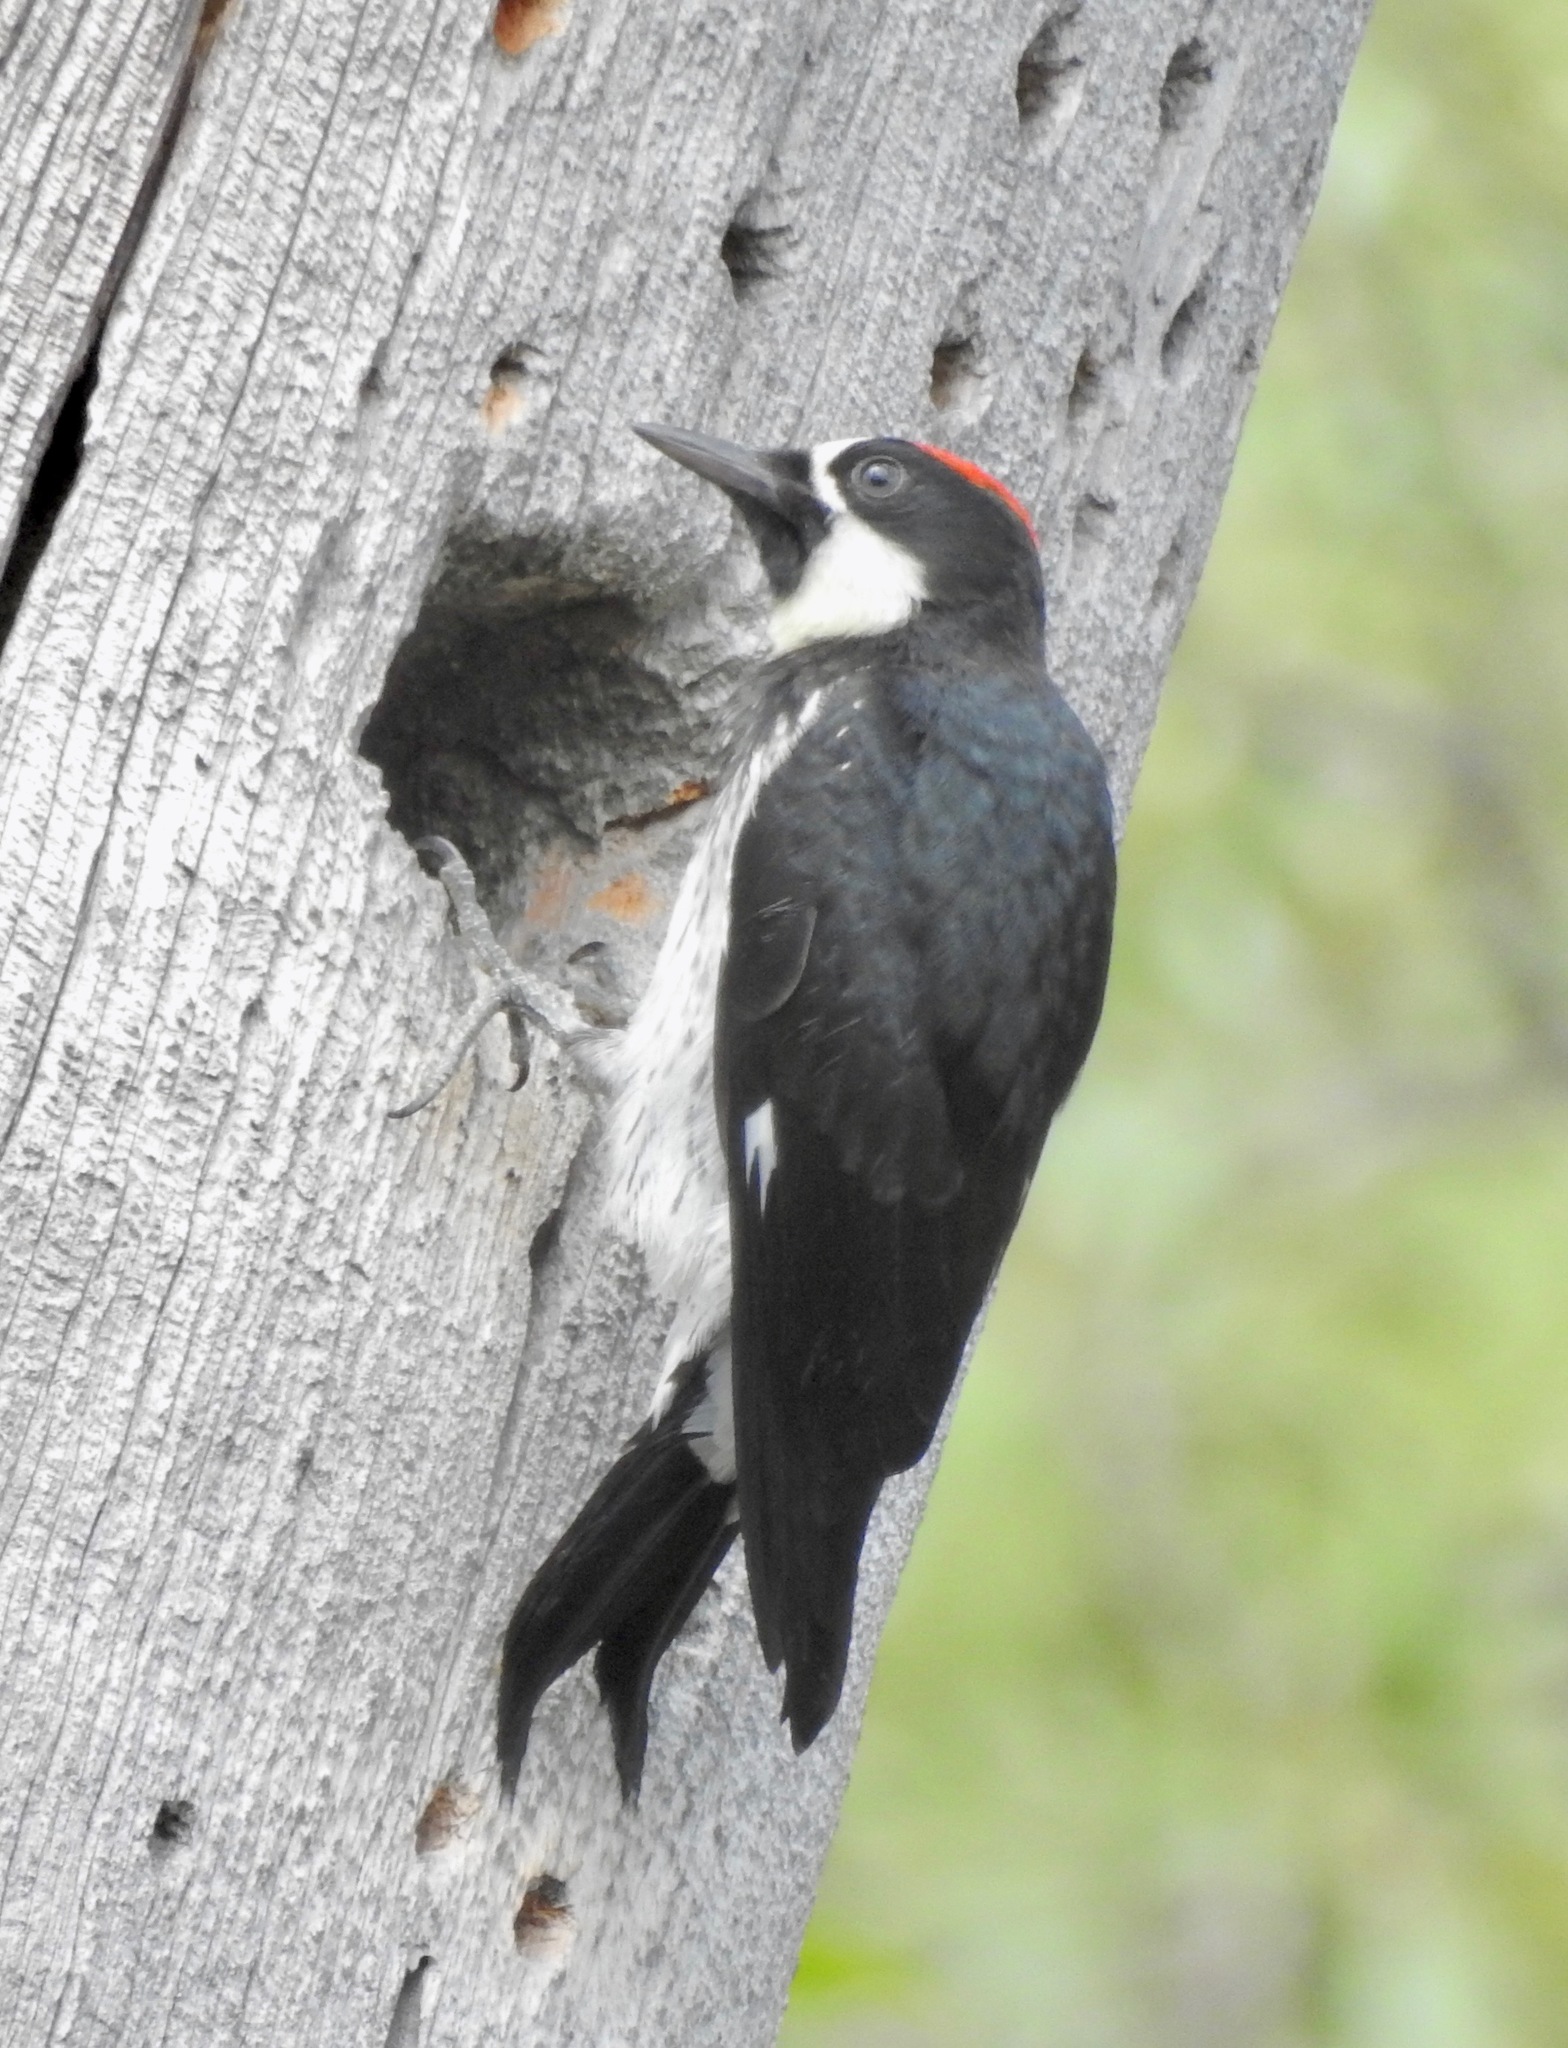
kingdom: Animalia
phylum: Chordata
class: Aves
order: Piciformes
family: Picidae
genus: Melanerpes
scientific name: Melanerpes formicivorus
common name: Acorn woodpecker
